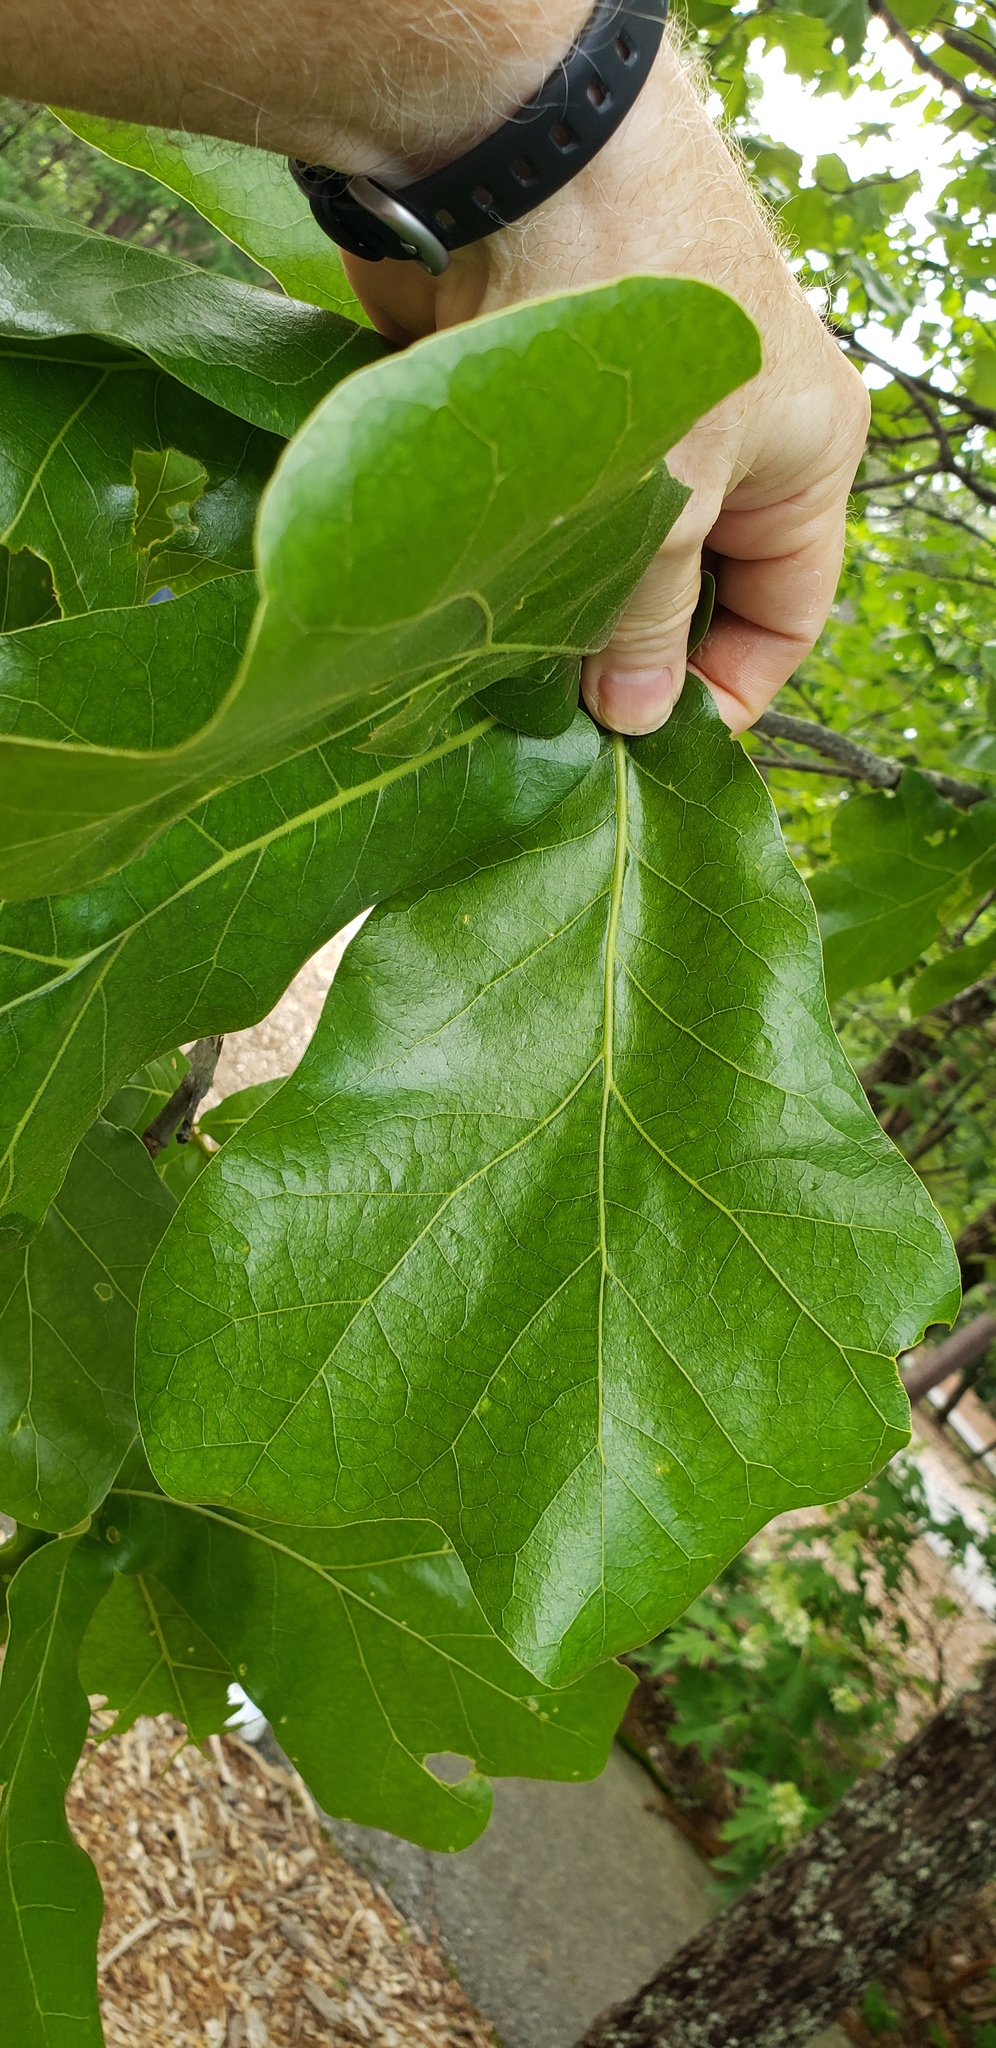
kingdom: Plantae
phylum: Tracheophyta
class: Magnoliopsida
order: Fagales
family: Fagaceae
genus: Quercus
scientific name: Quercus marilandica
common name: Blackjack oak
